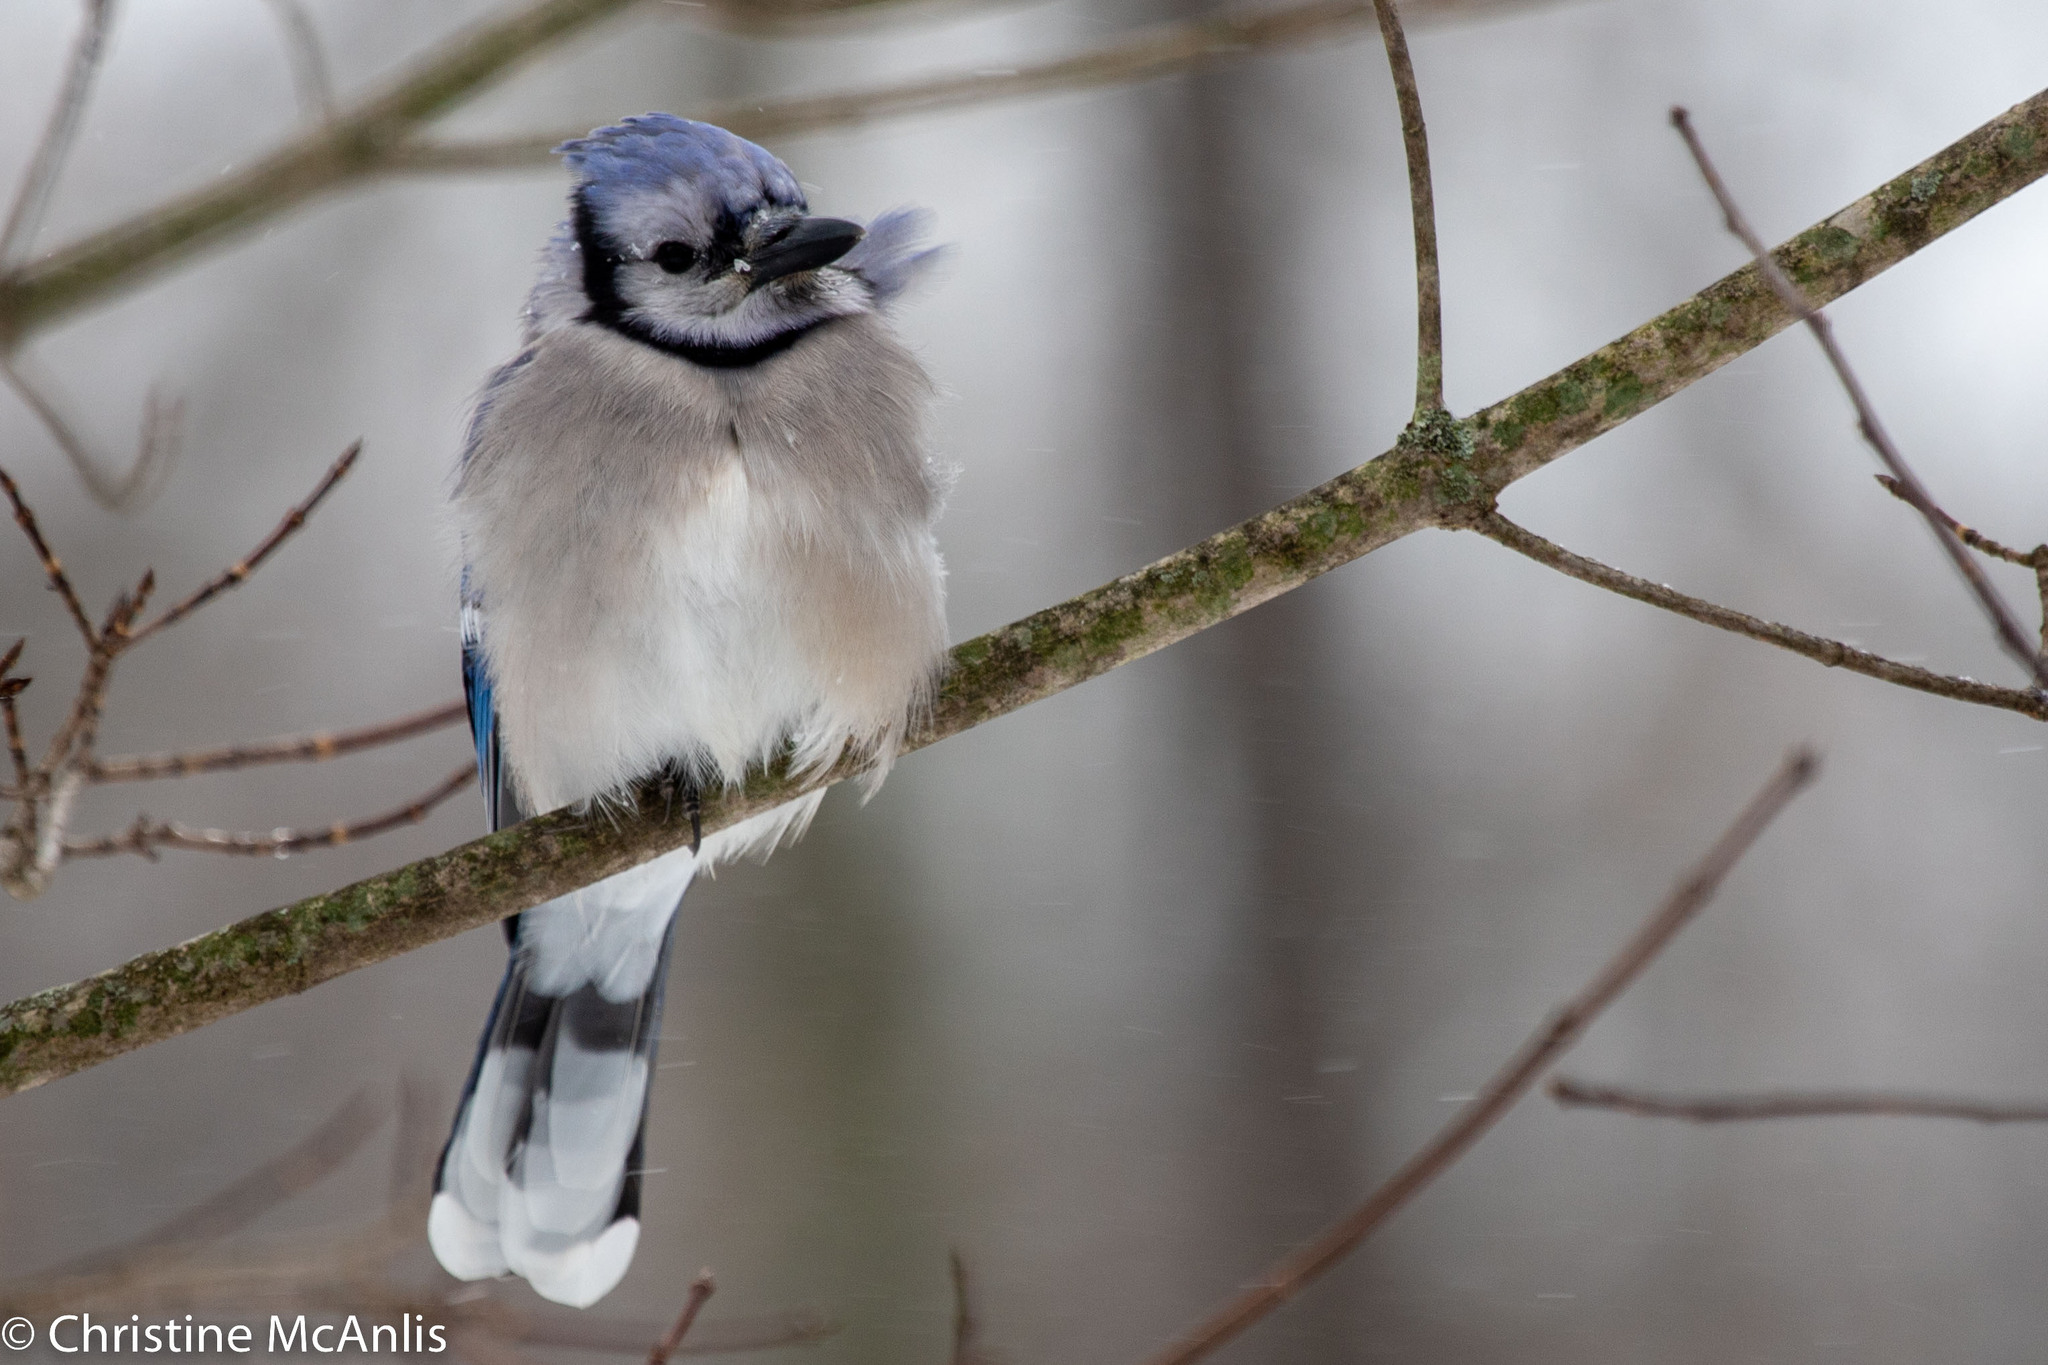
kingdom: Animalia
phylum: Chordata
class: Aves
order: Passeriformes
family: Corvidae
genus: Cyanocitta
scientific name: Cyanocitta cristata
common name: Blue jay
